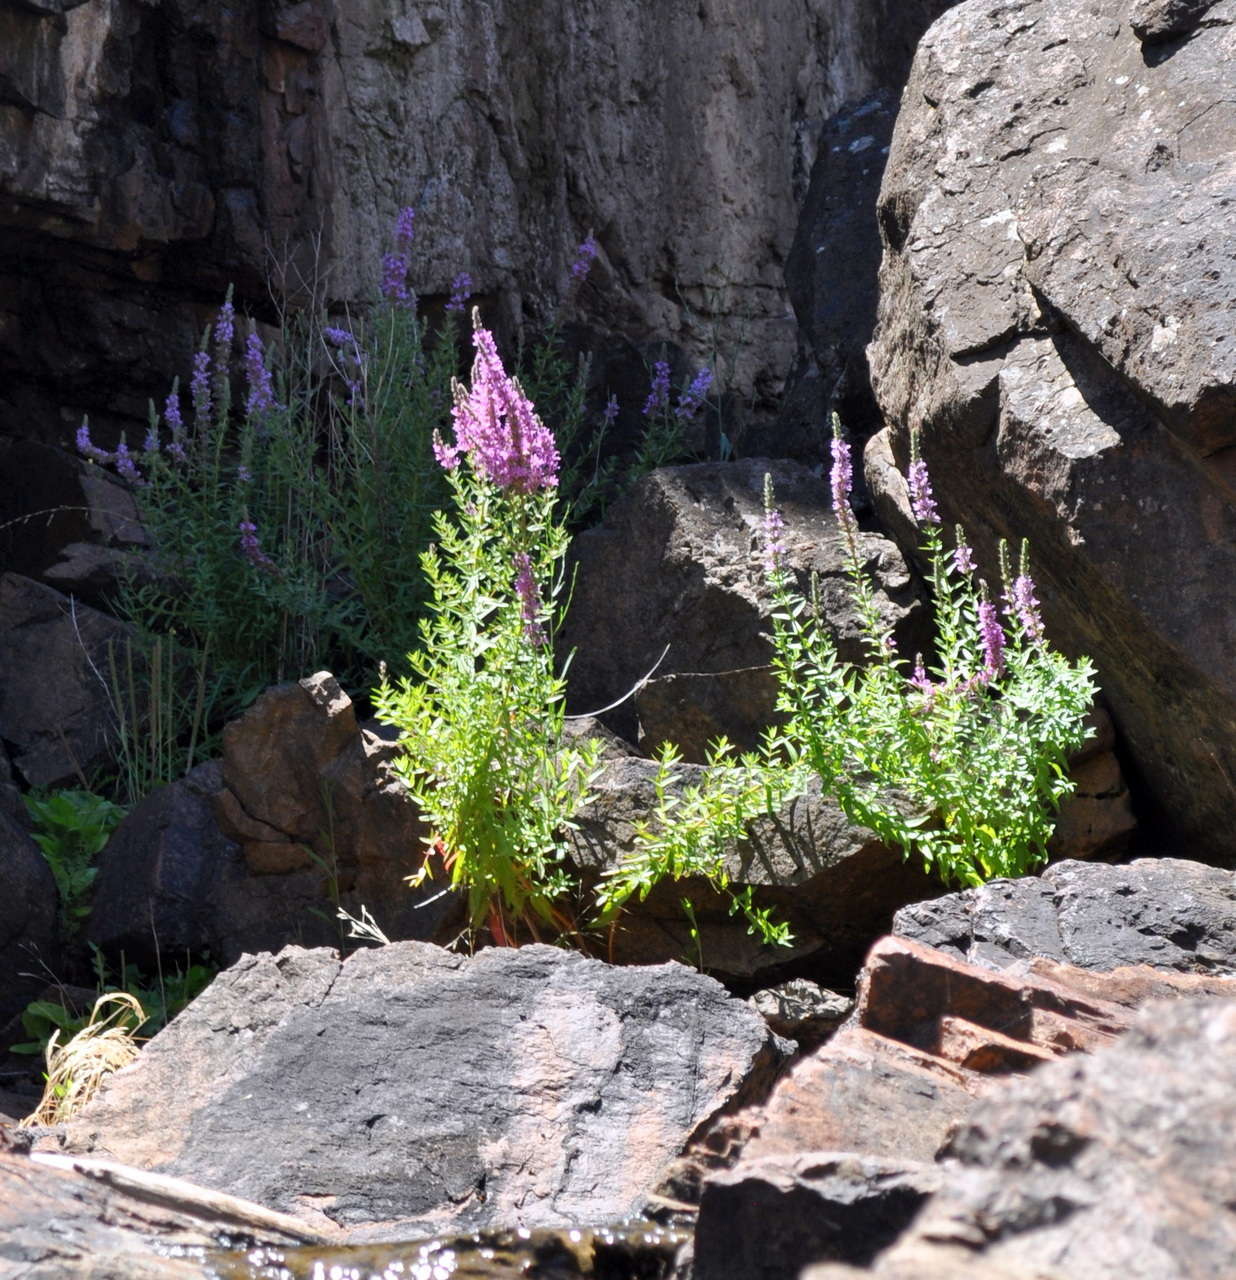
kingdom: Plantae
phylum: Tracheophyta
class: Magnoliopsida
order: Myrtales
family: Lythraceae
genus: Lythrum
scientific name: Lythrum salicaria
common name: Purple loosestrife
